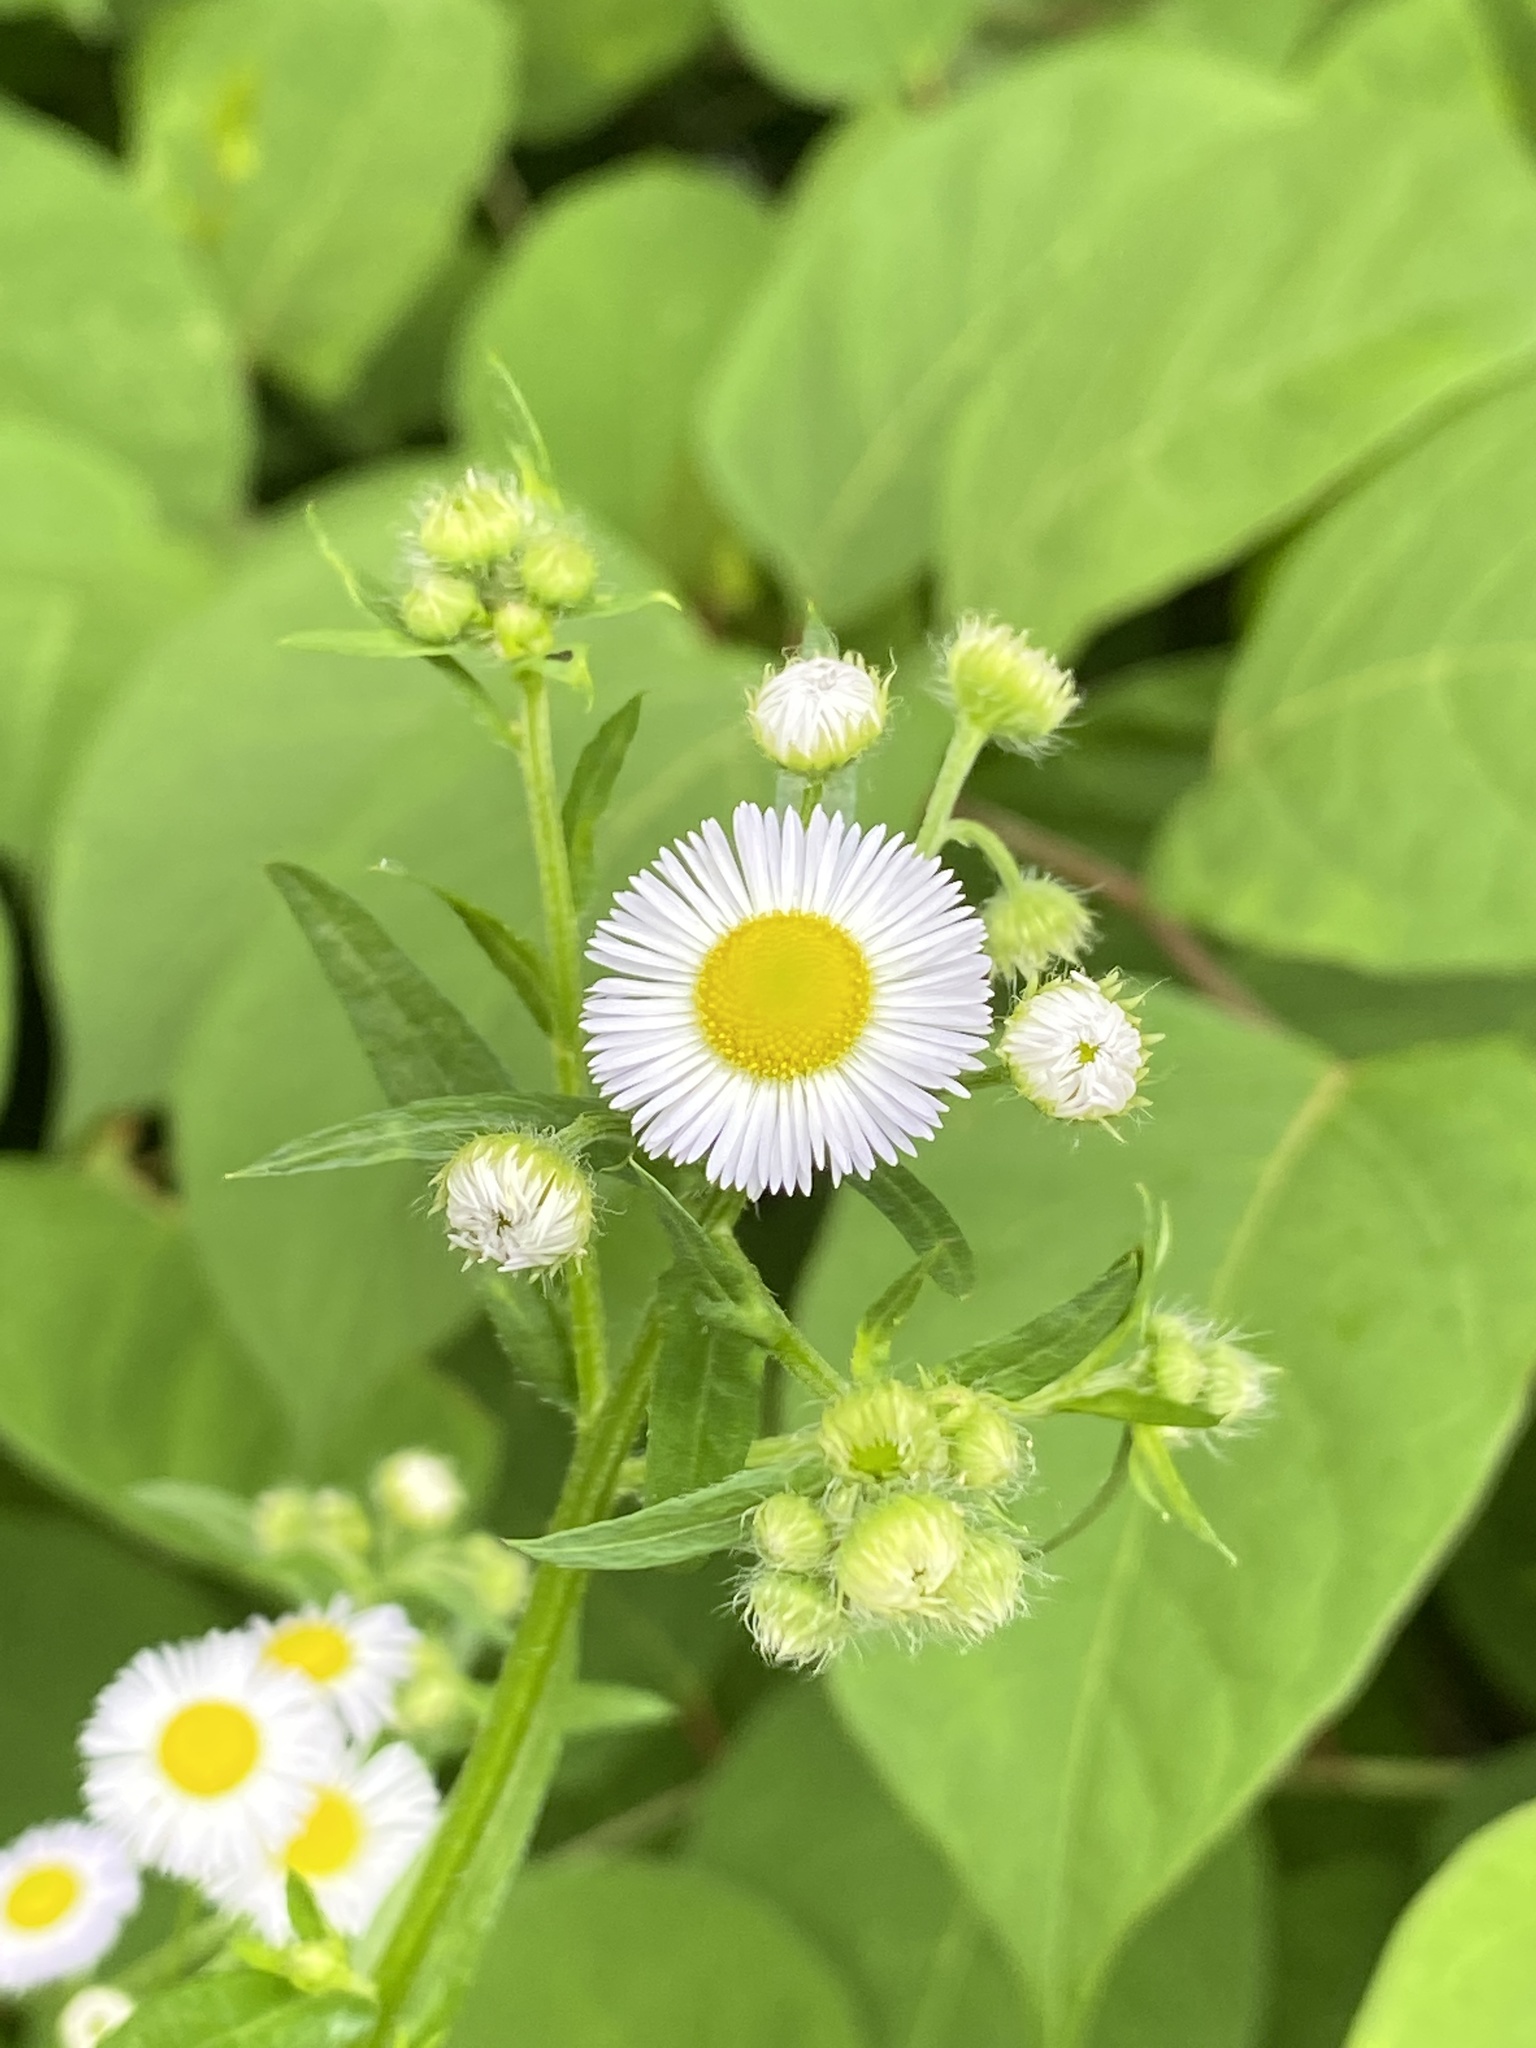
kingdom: Plantae
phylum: Tracheophyta
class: Magnoliopsida
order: Asterales
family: Asteraceae
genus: Erigeron
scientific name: Erigeron annuus
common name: Tall fleabane
